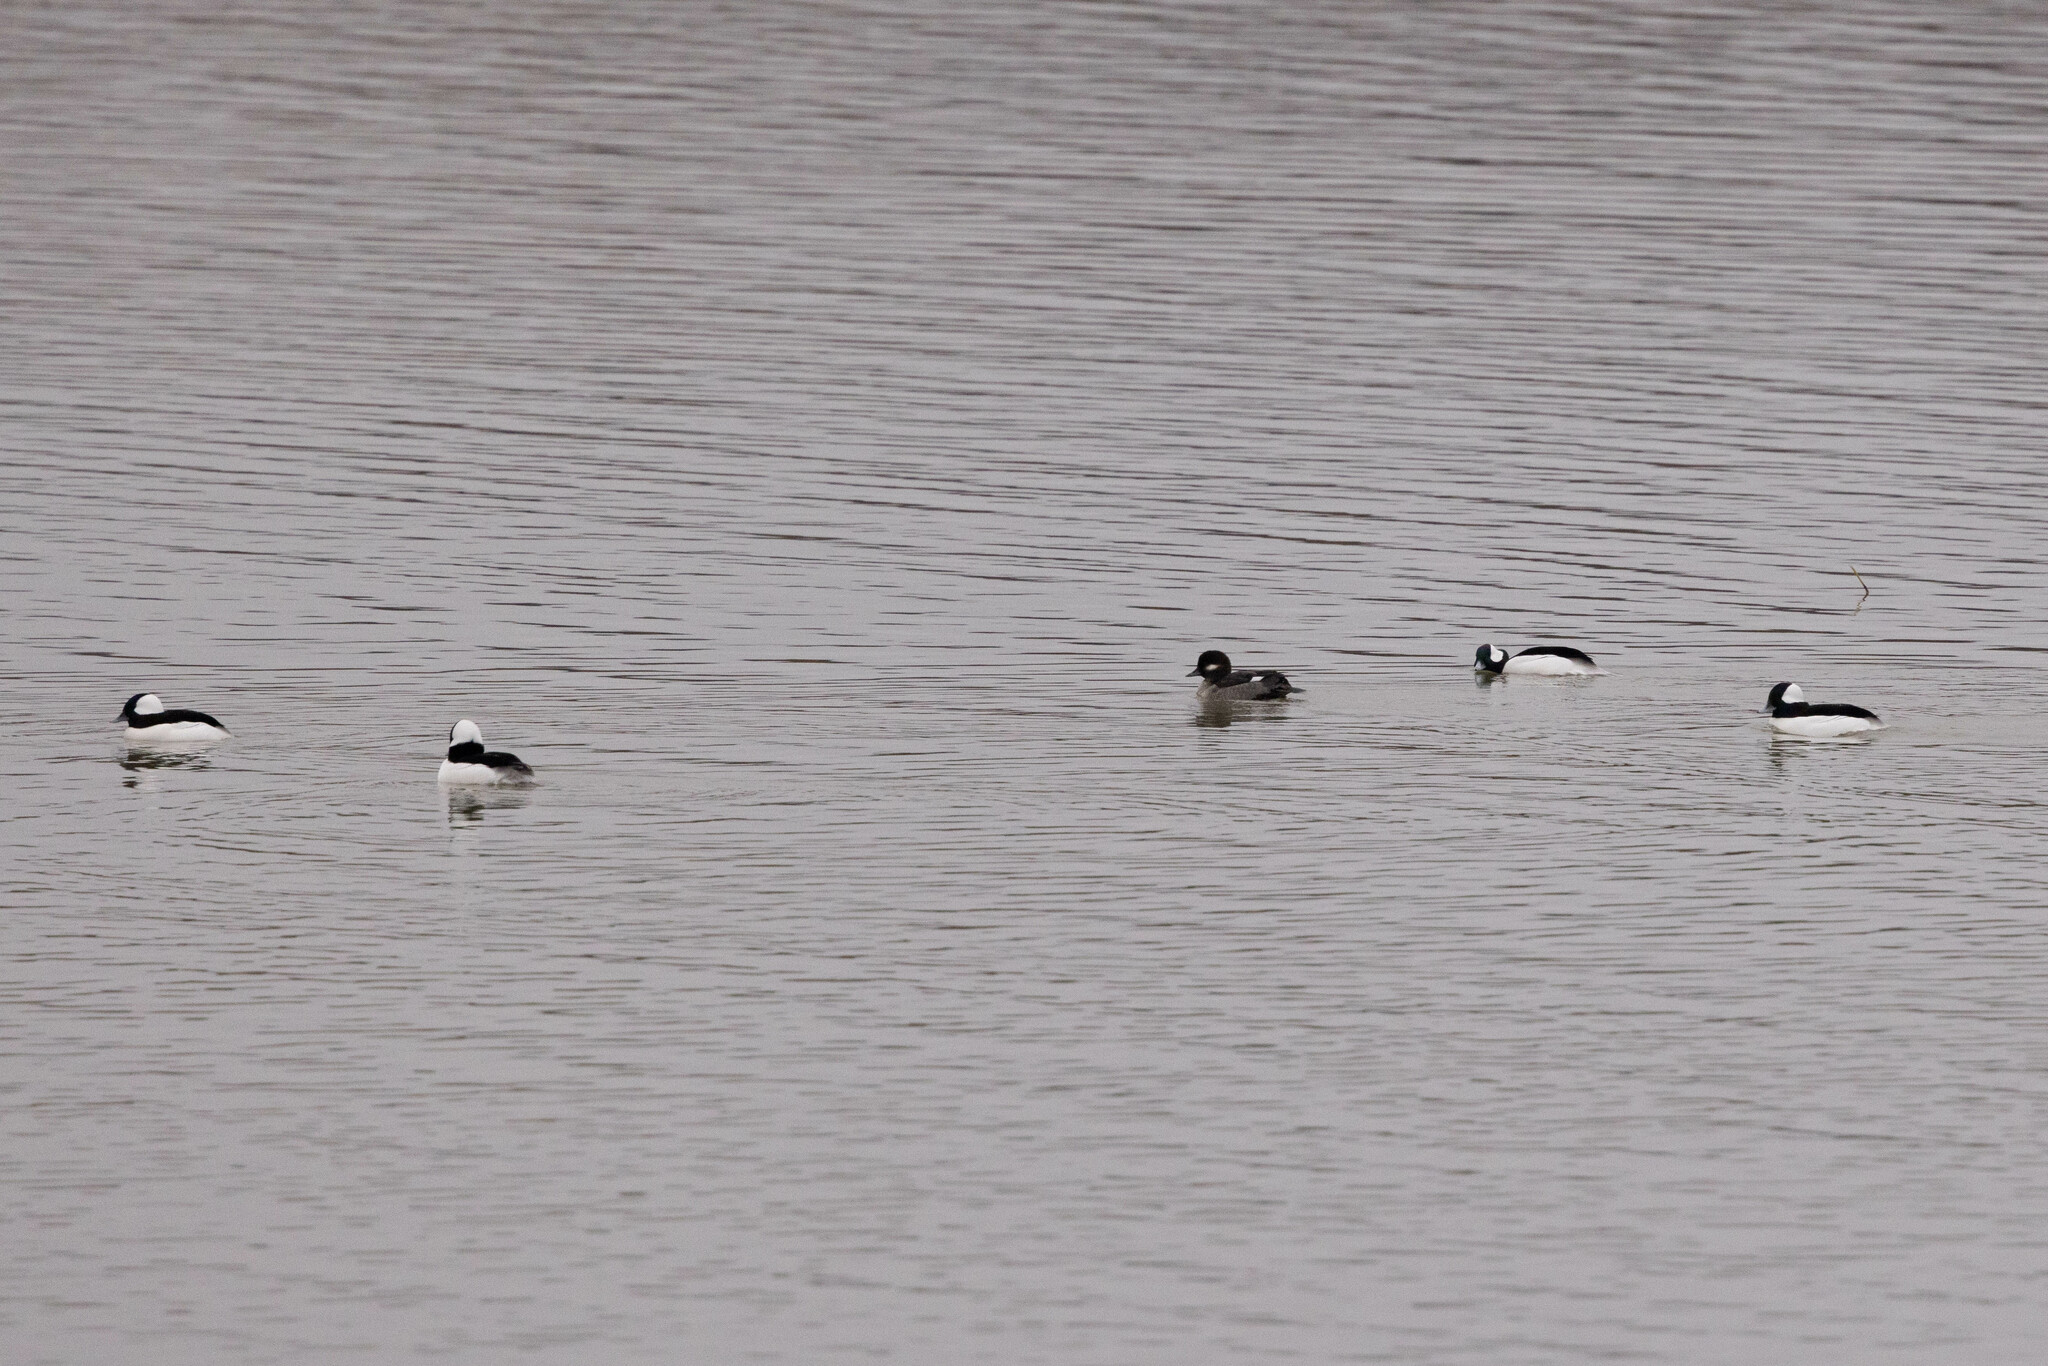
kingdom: Animalia
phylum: Chordata
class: Aves
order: Anseriformes
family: Anatidae
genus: Bucephala
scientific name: Bucephala albeola
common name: Bufflehead
